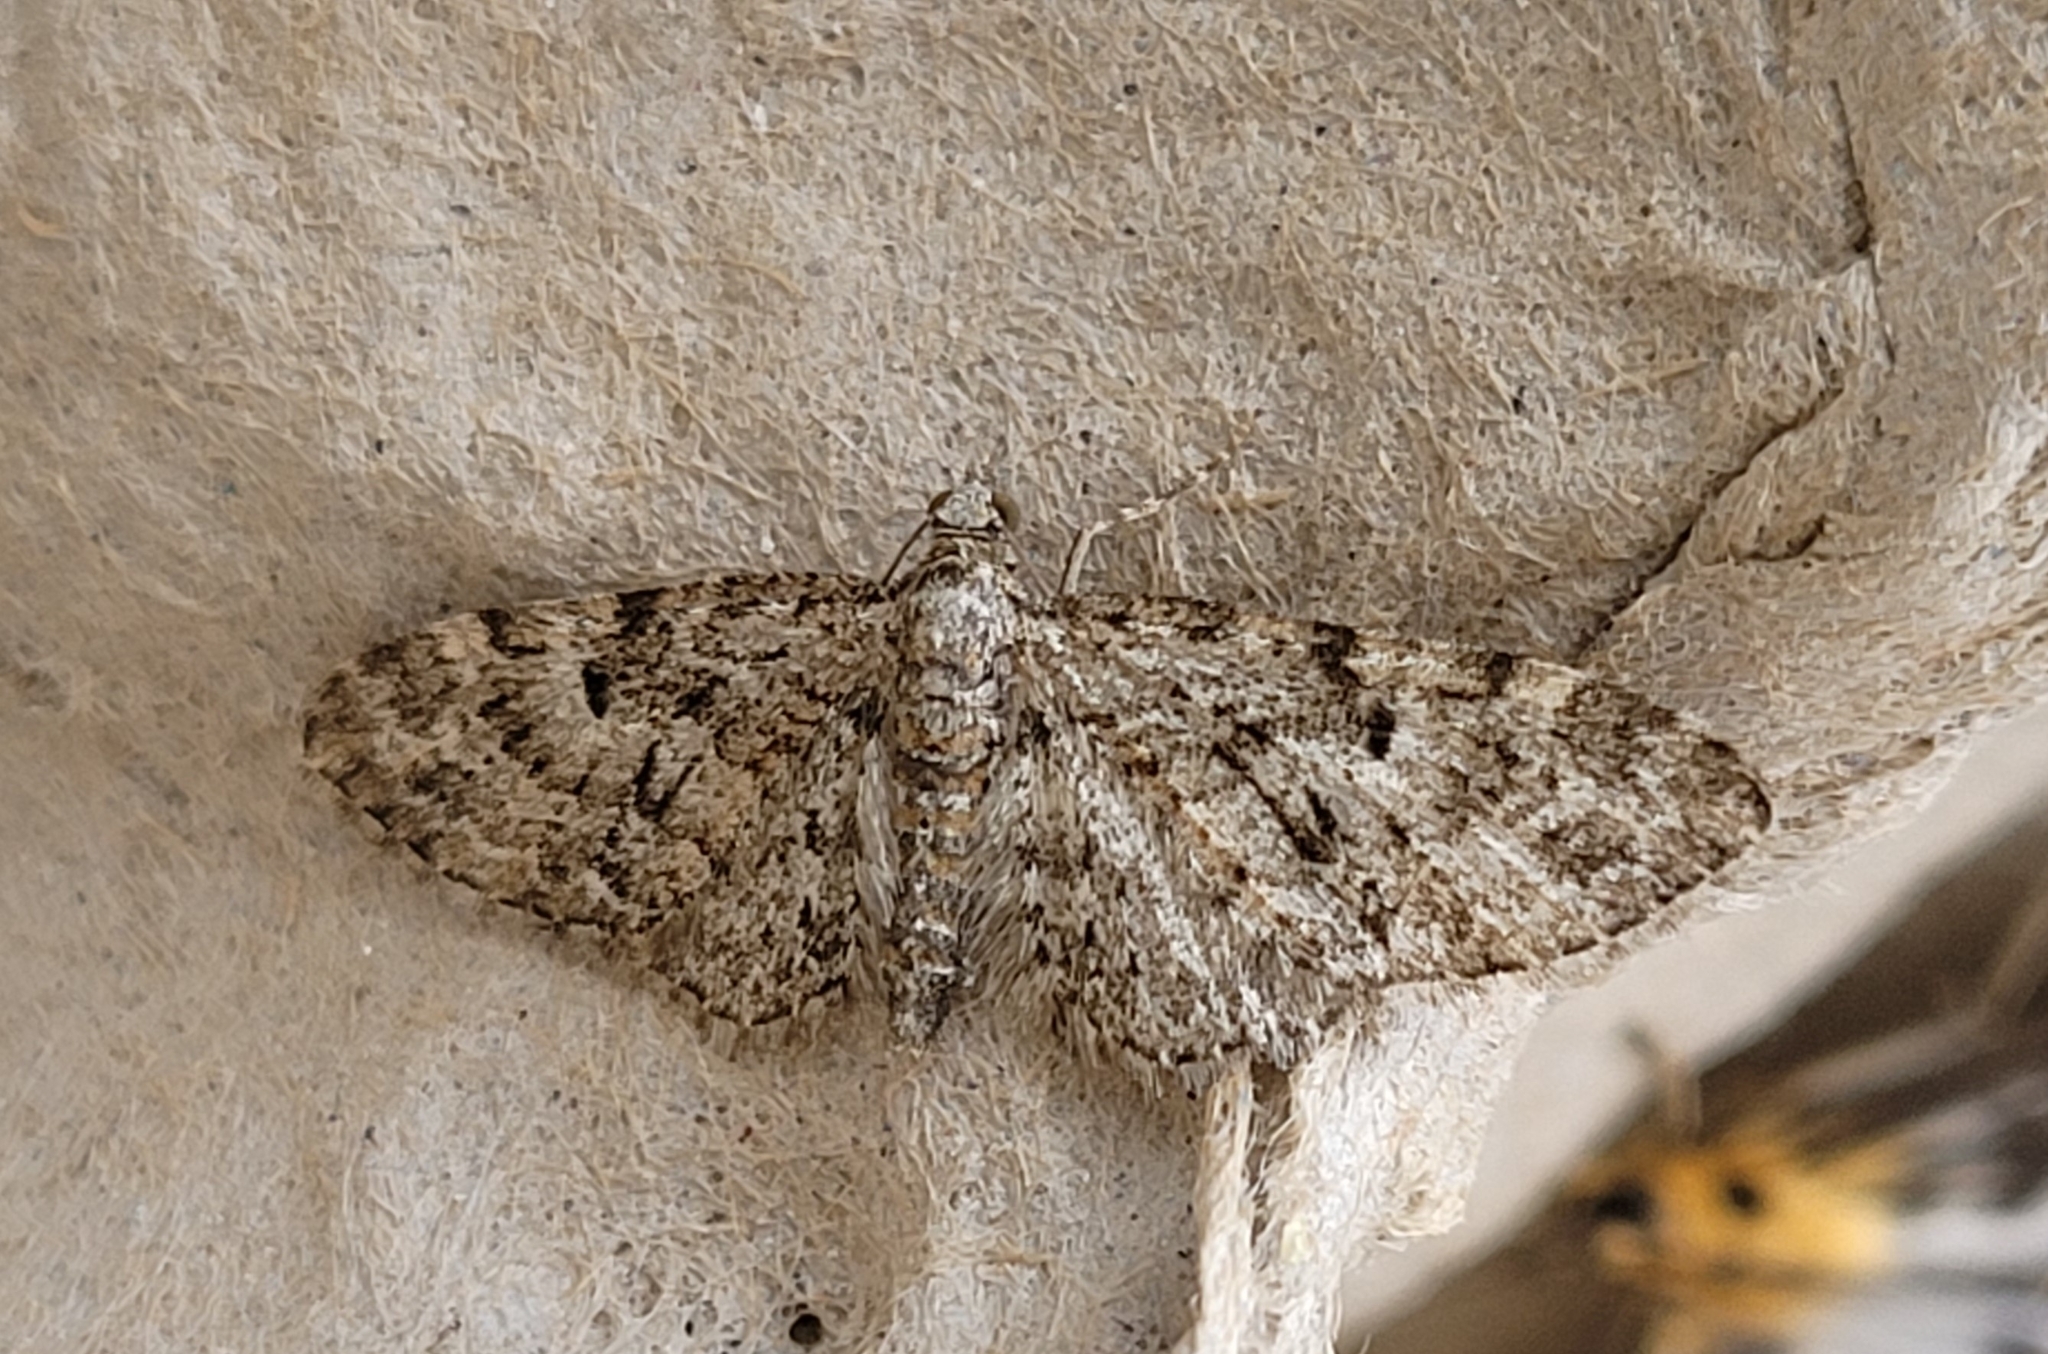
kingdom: Animalia
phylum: Arthropoda
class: Insecta
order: Lepidoptera
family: Geometridae
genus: Eupithecia
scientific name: Eupithecia dodoneata
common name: Oak-tree pug
